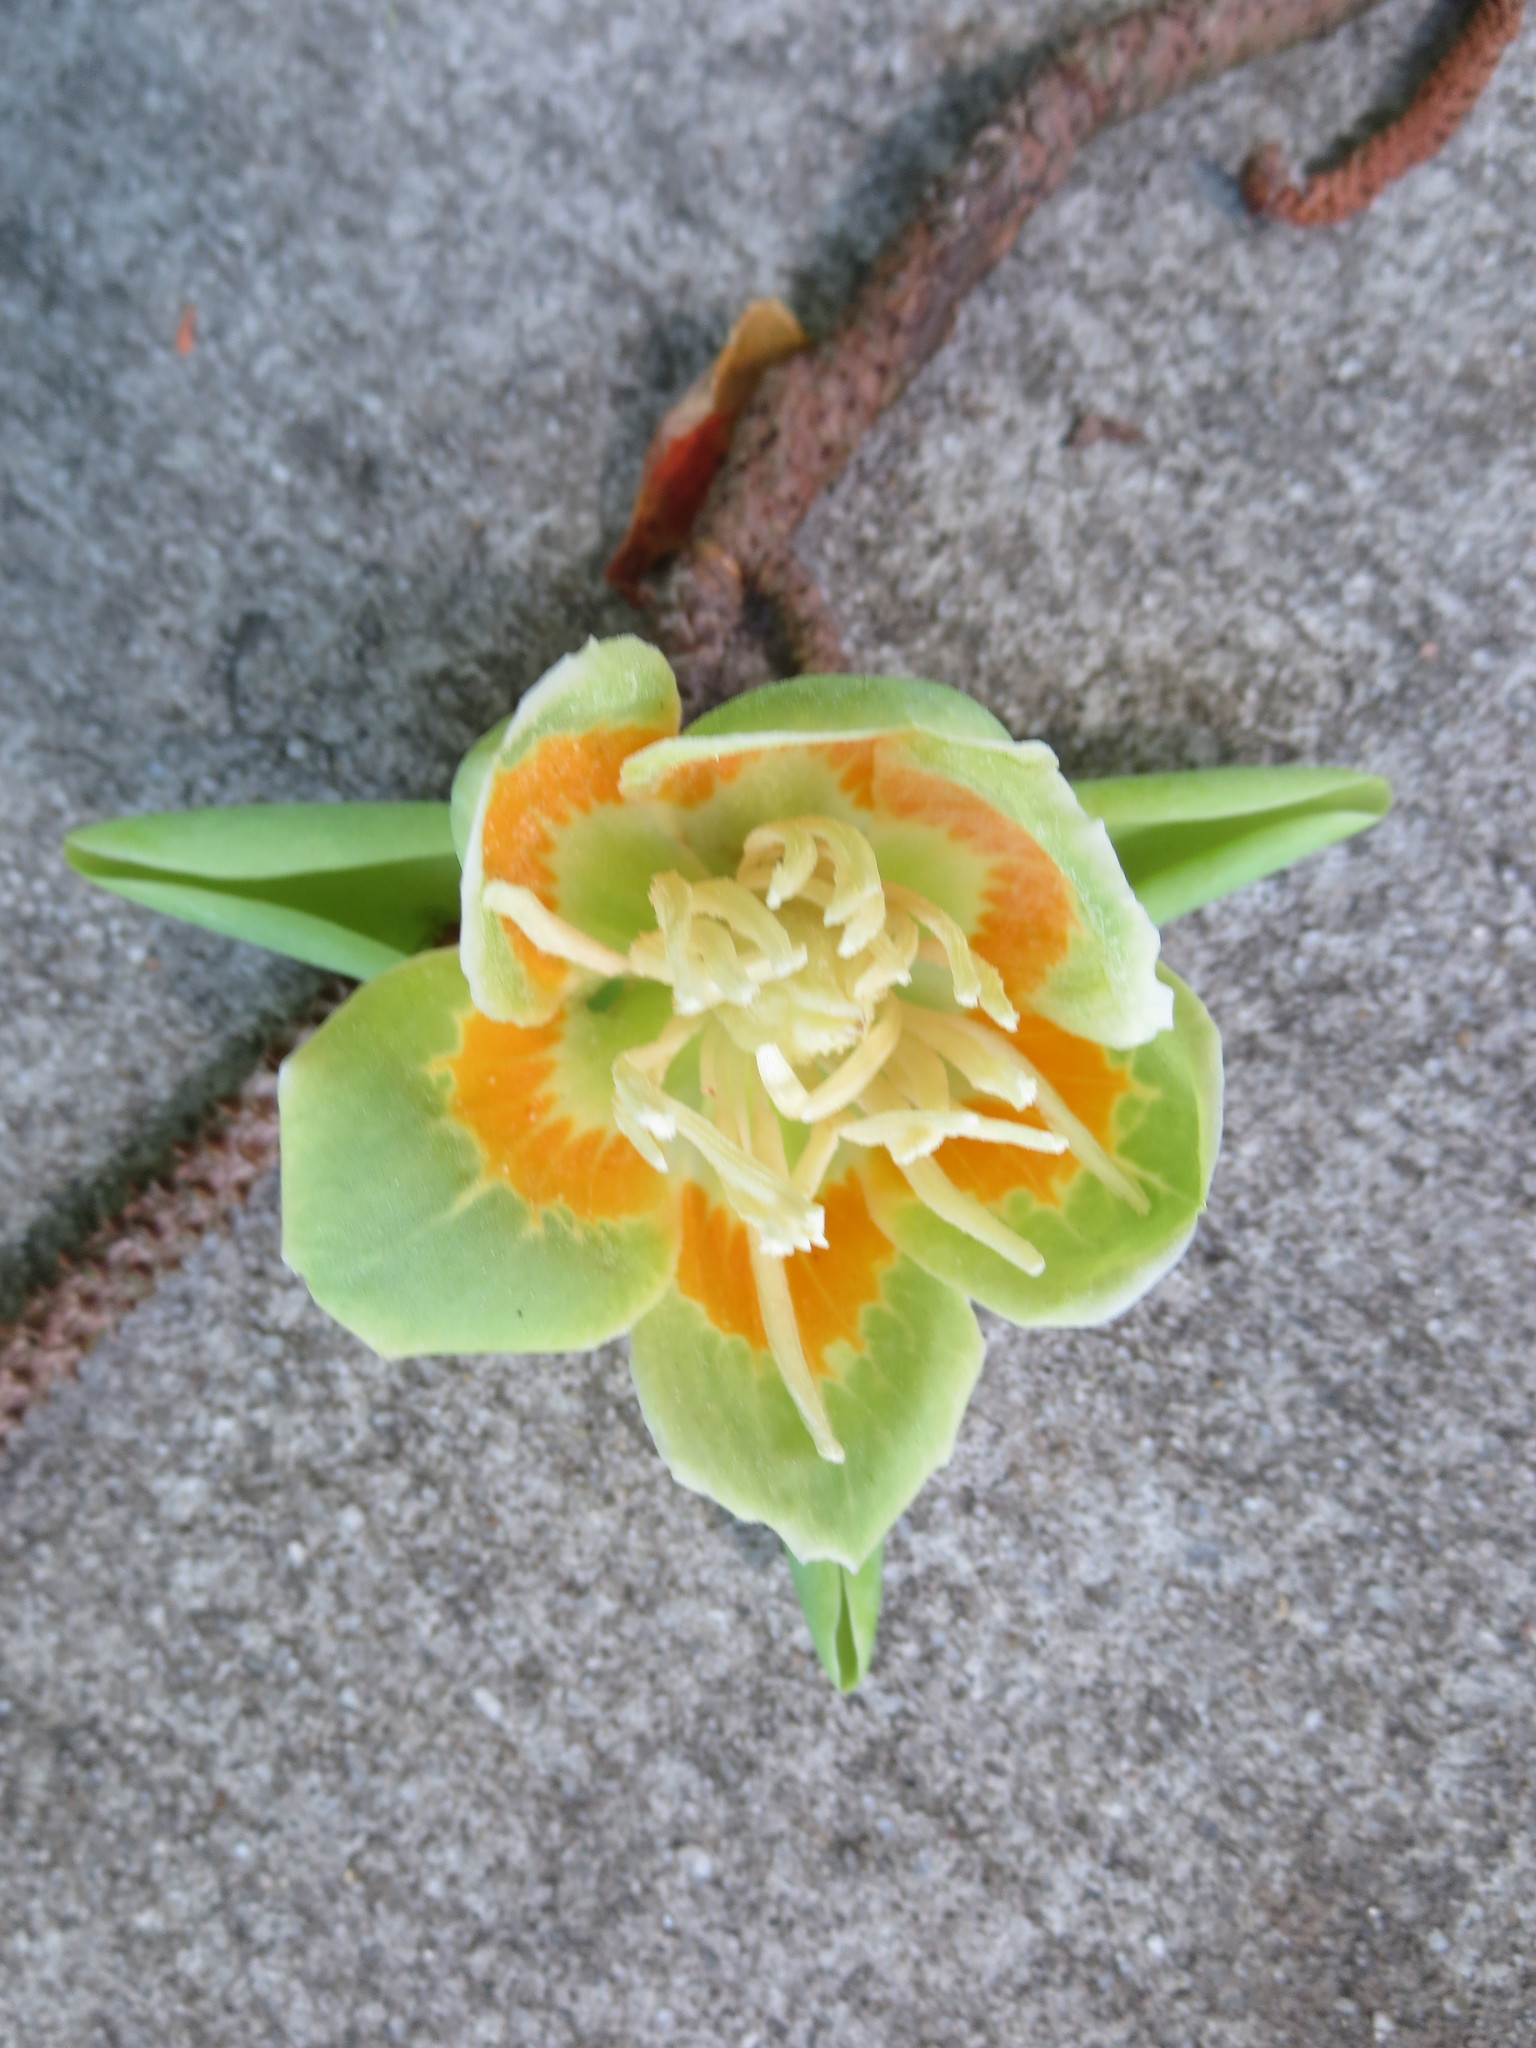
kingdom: Plantae
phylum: Tracheophyta
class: Magnoliopsida
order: Magnoliales
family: Magnoliaceae
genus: Liriodendron
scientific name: Liriodendron tulipifera
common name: Tulip tree
